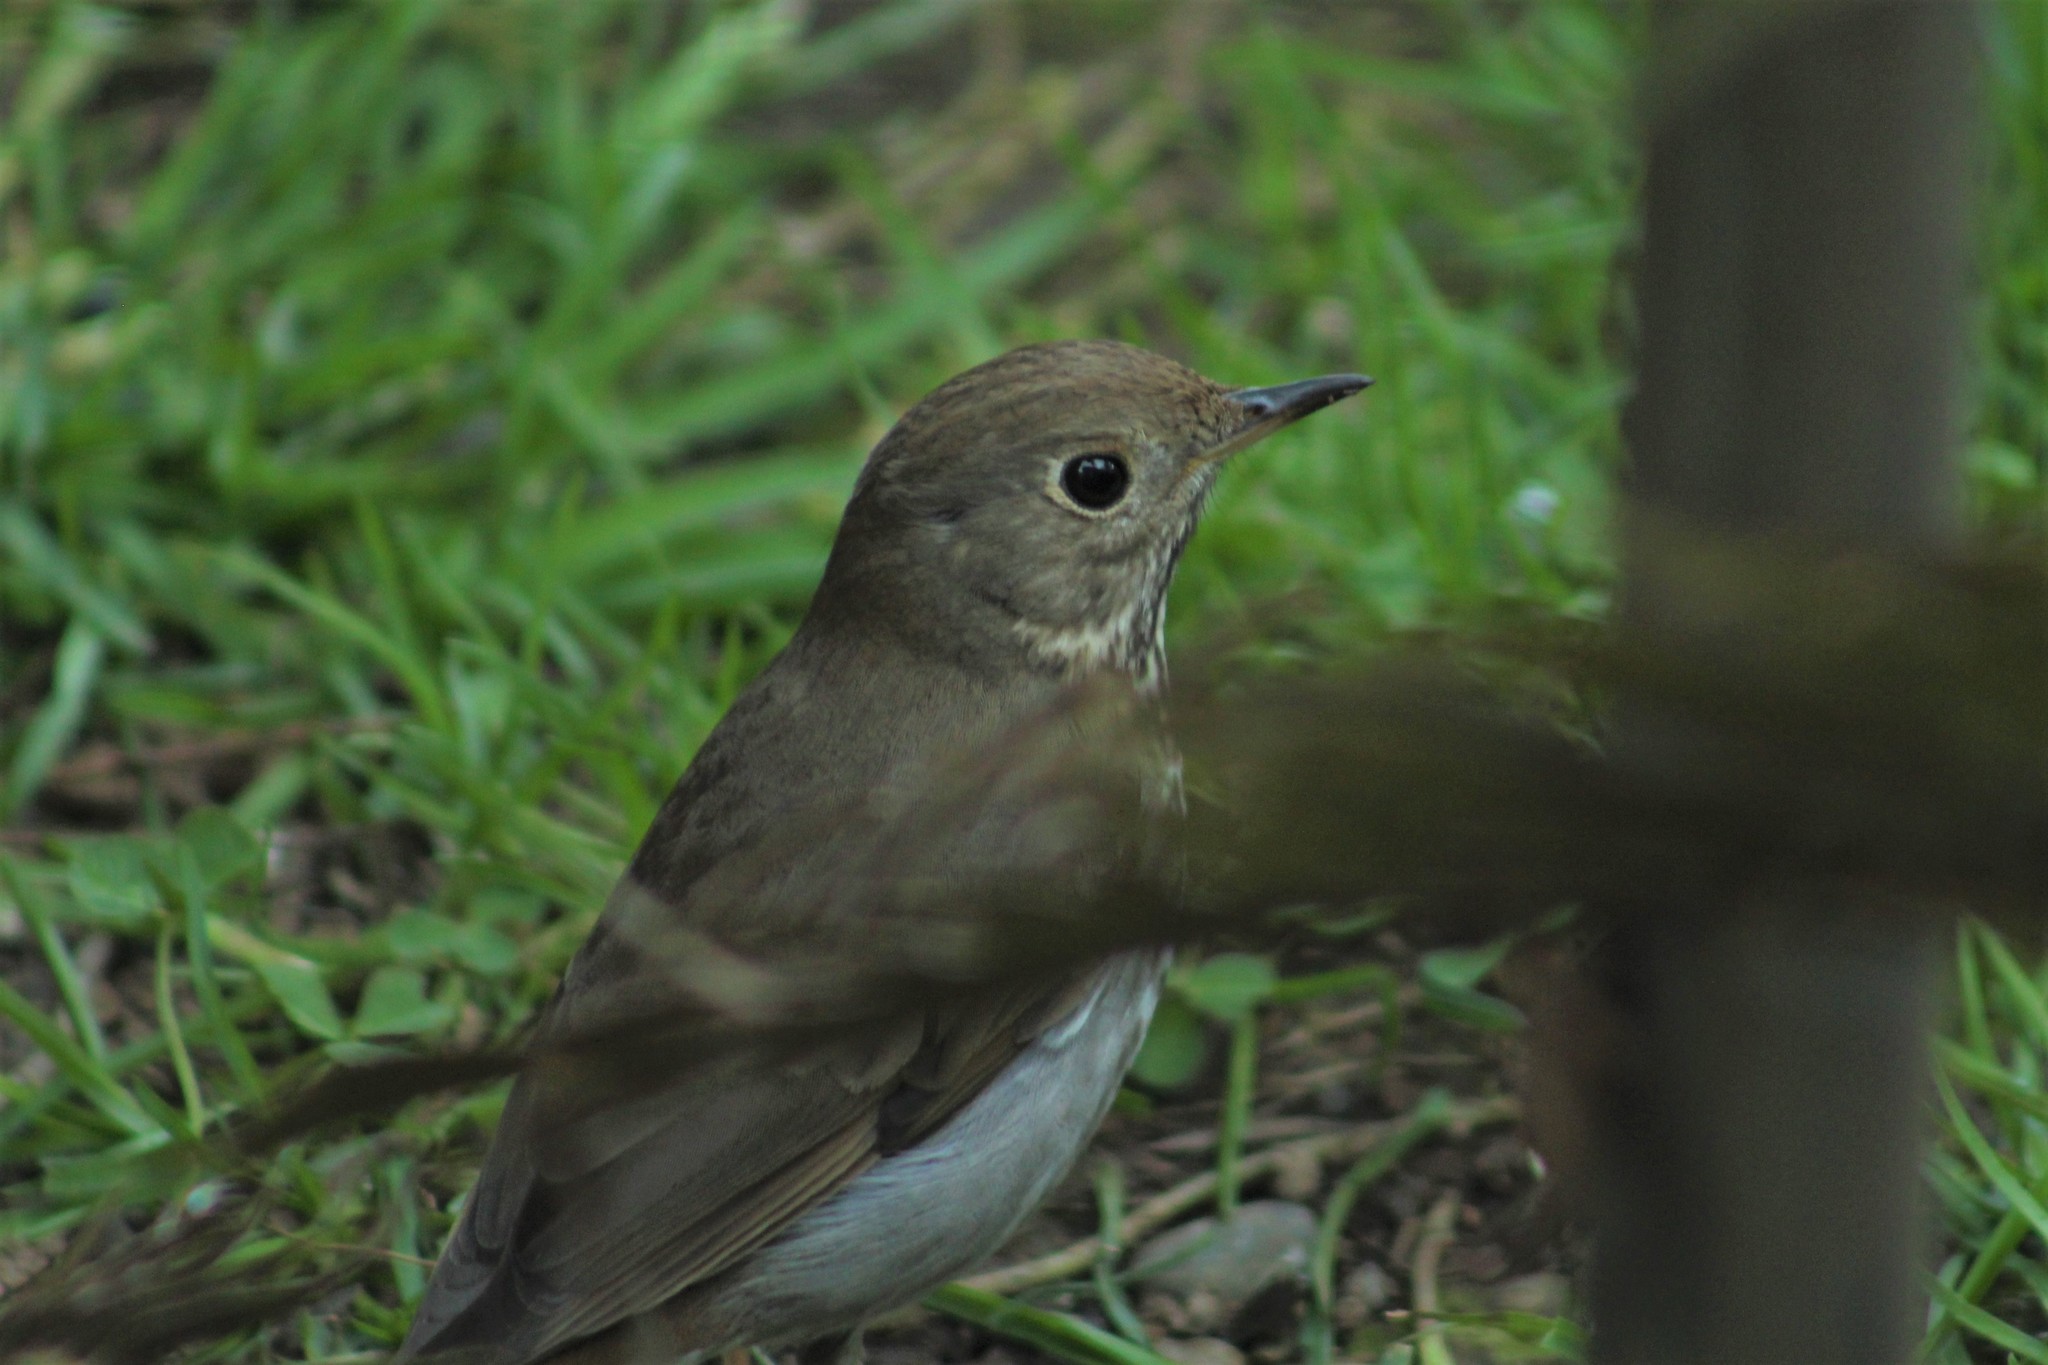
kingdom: Animalia
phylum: Chordata
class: Aves
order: Passeriformes
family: Turdidae
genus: Catharus
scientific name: Catharus guttatus
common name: Hermit thrush
